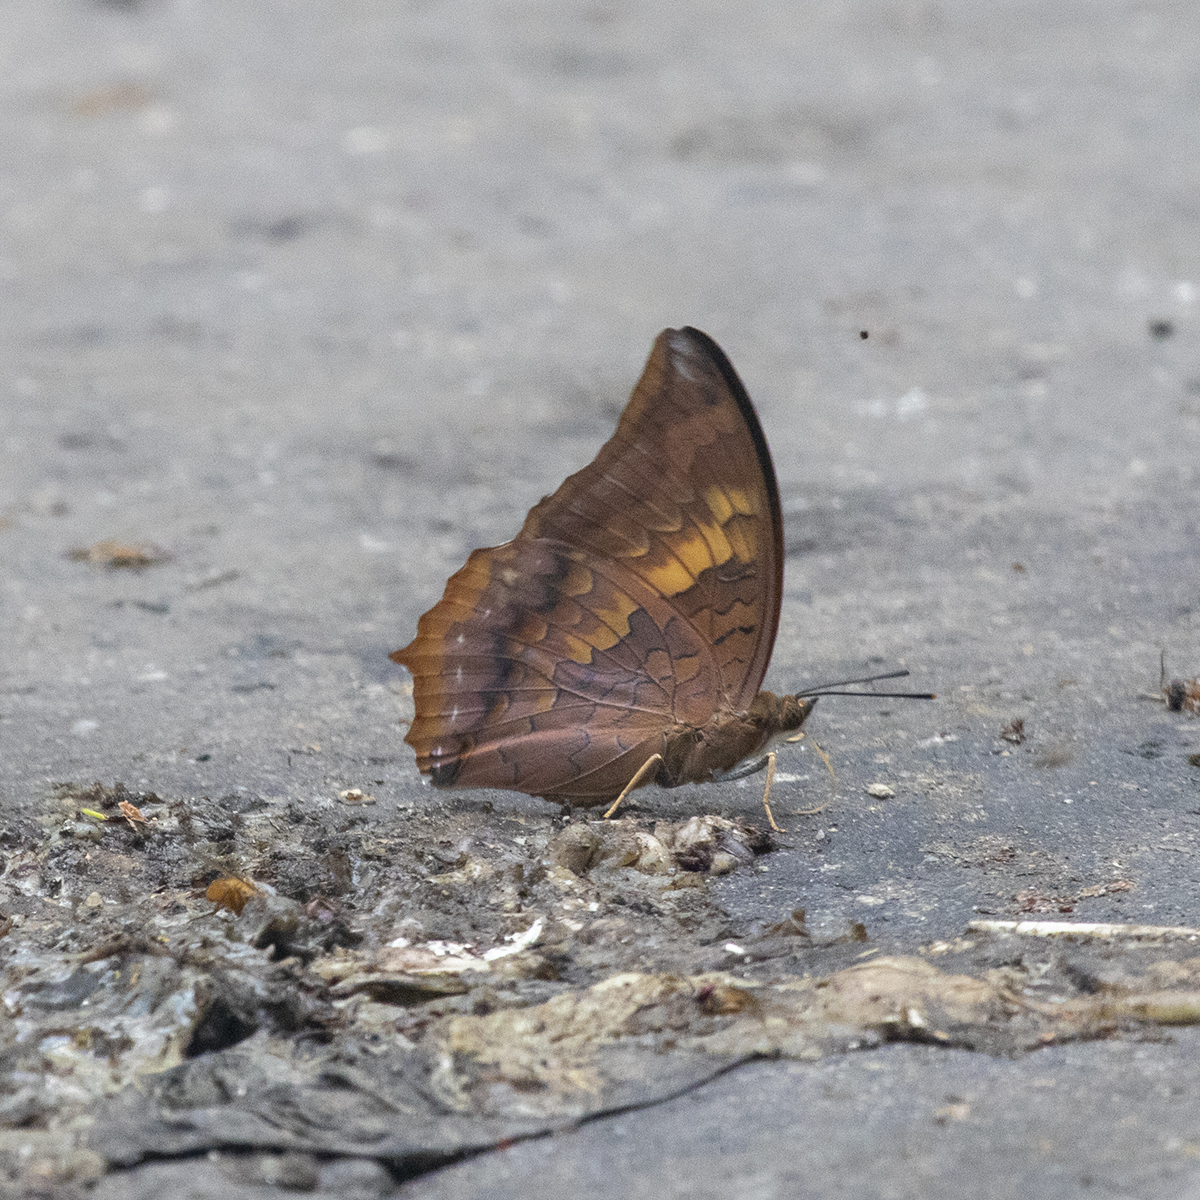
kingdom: Animalia
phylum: Arthropoda
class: Insecta
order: Lepidoptera
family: Nymphalidae
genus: Charaxes
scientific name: Charaxes bernardus
